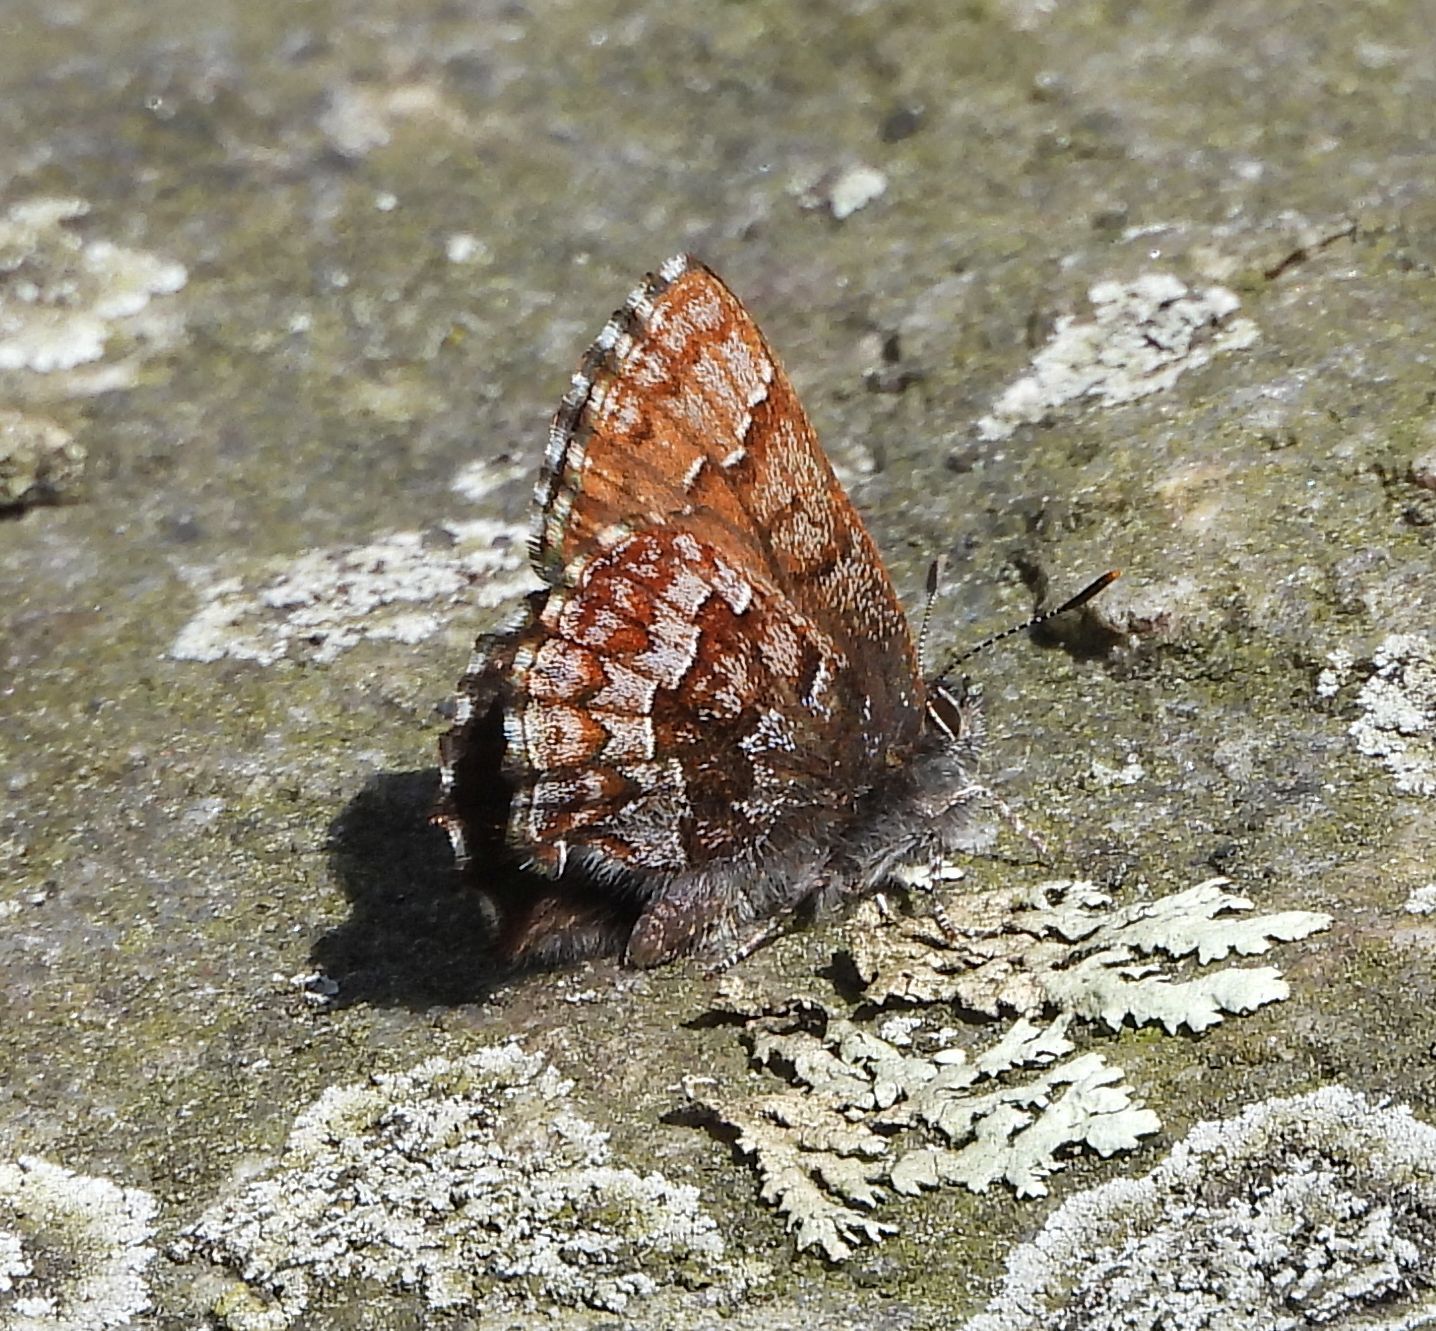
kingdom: Animalia
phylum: Arthropoda
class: Insecta
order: Lepidoptera
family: Lycaenidae
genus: Incisalia
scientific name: Incisalia niphon
